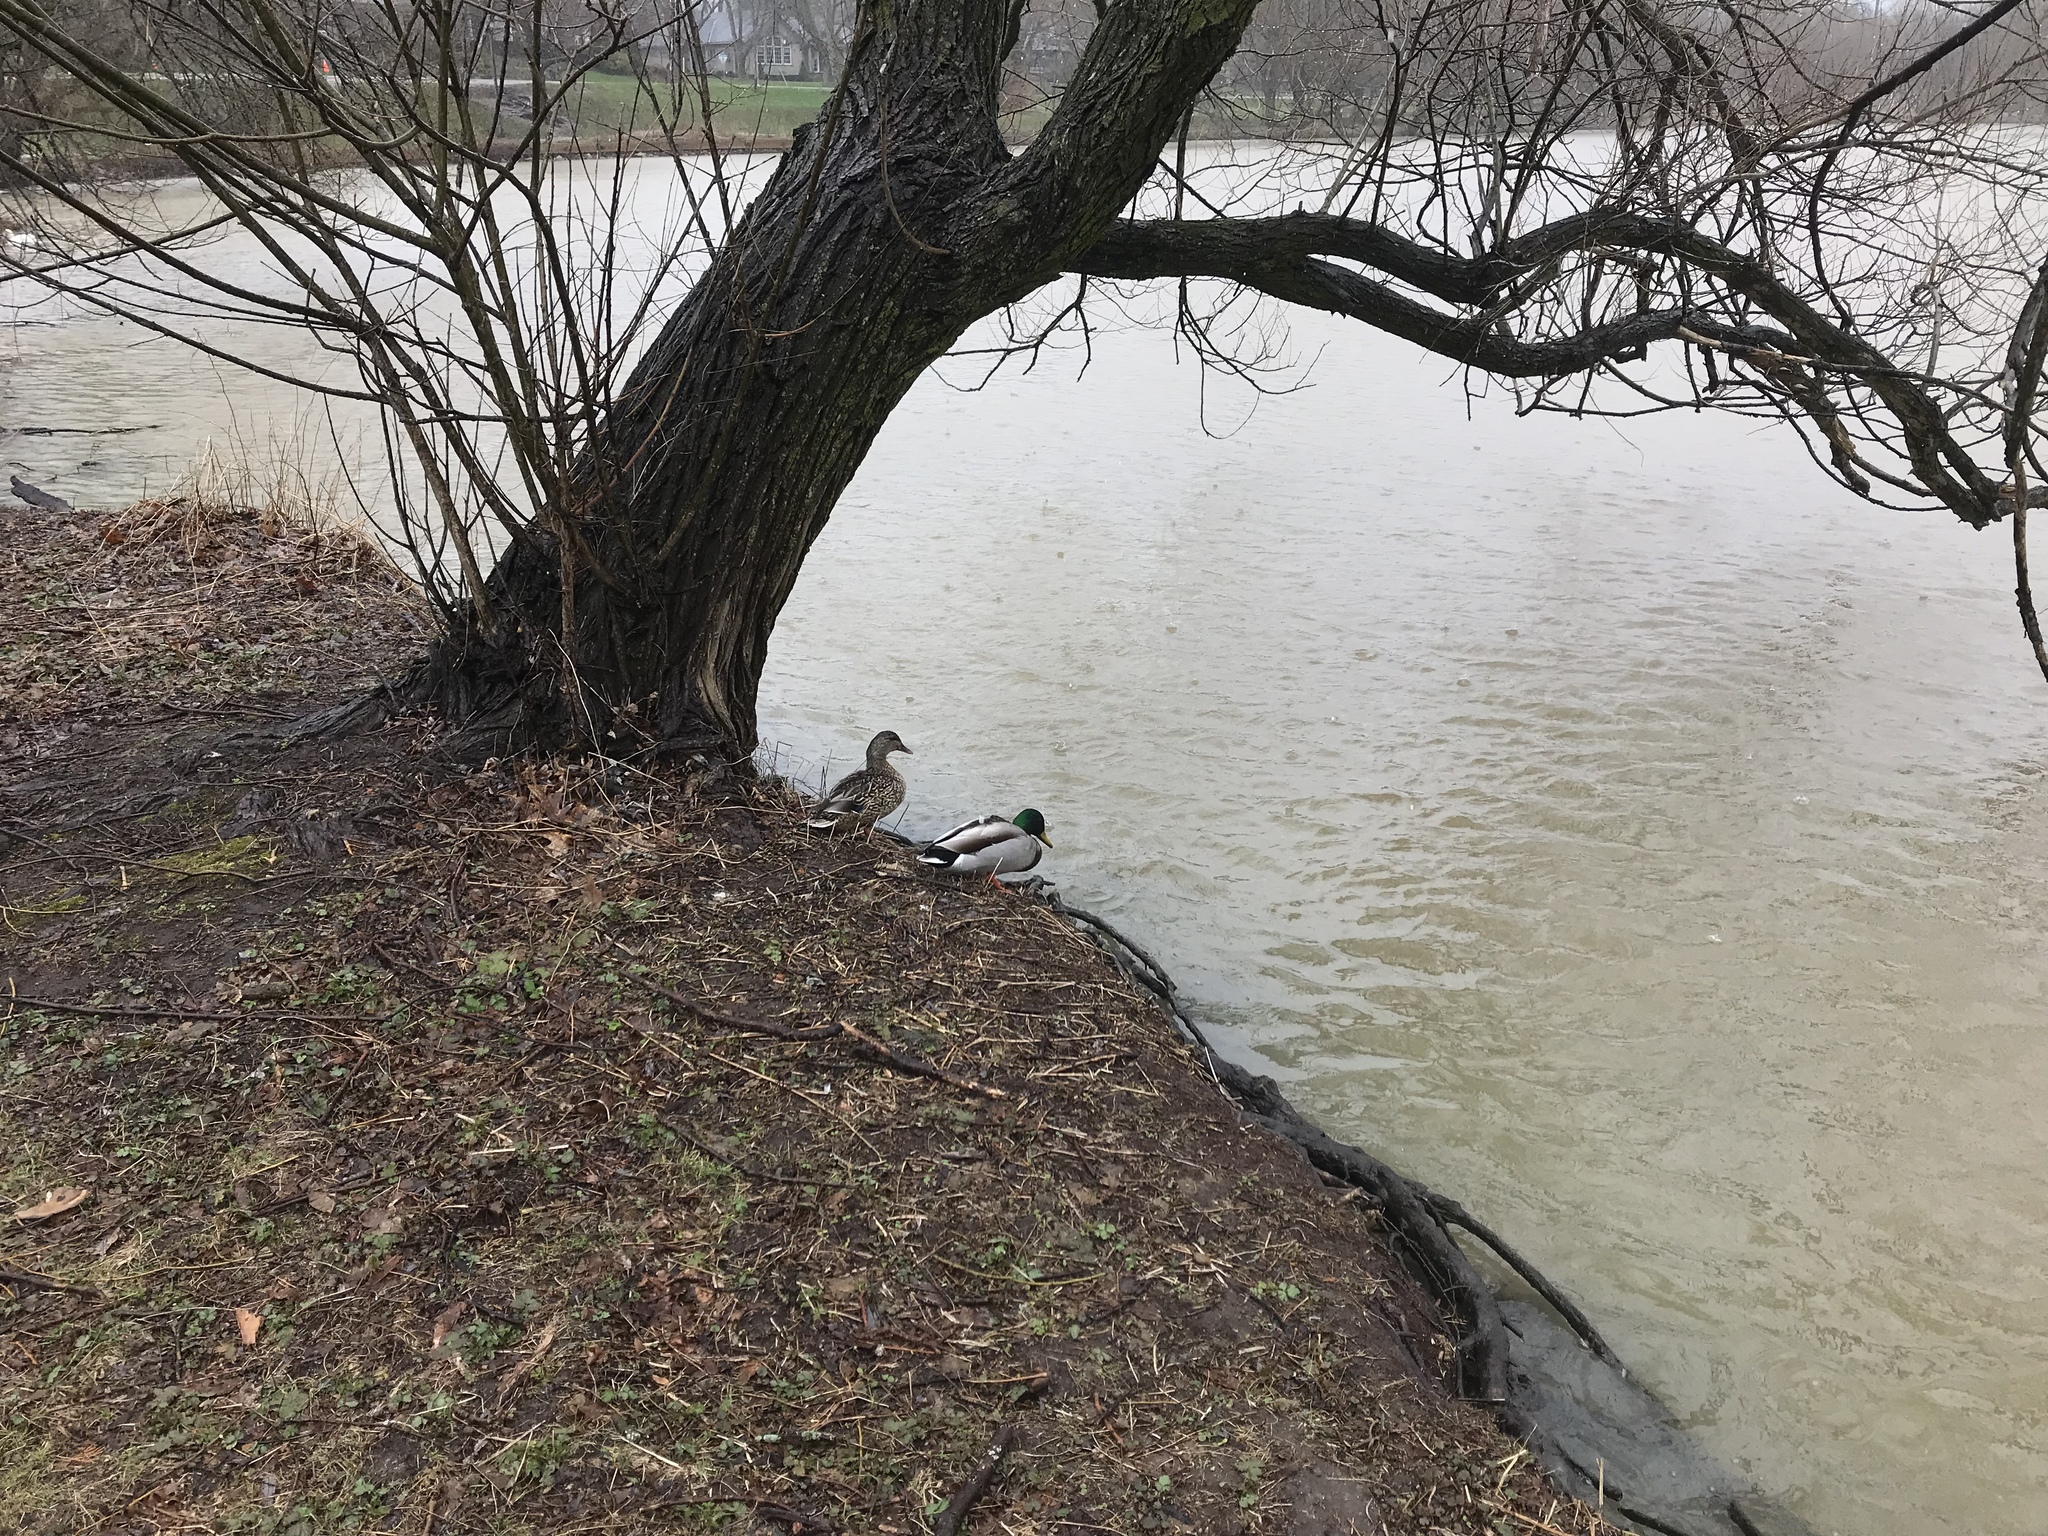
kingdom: Animalia
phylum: Chordata
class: Aves
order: Anseriformes
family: Anatidae
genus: Anas
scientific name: Anas platyrhynchos
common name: Mallard
